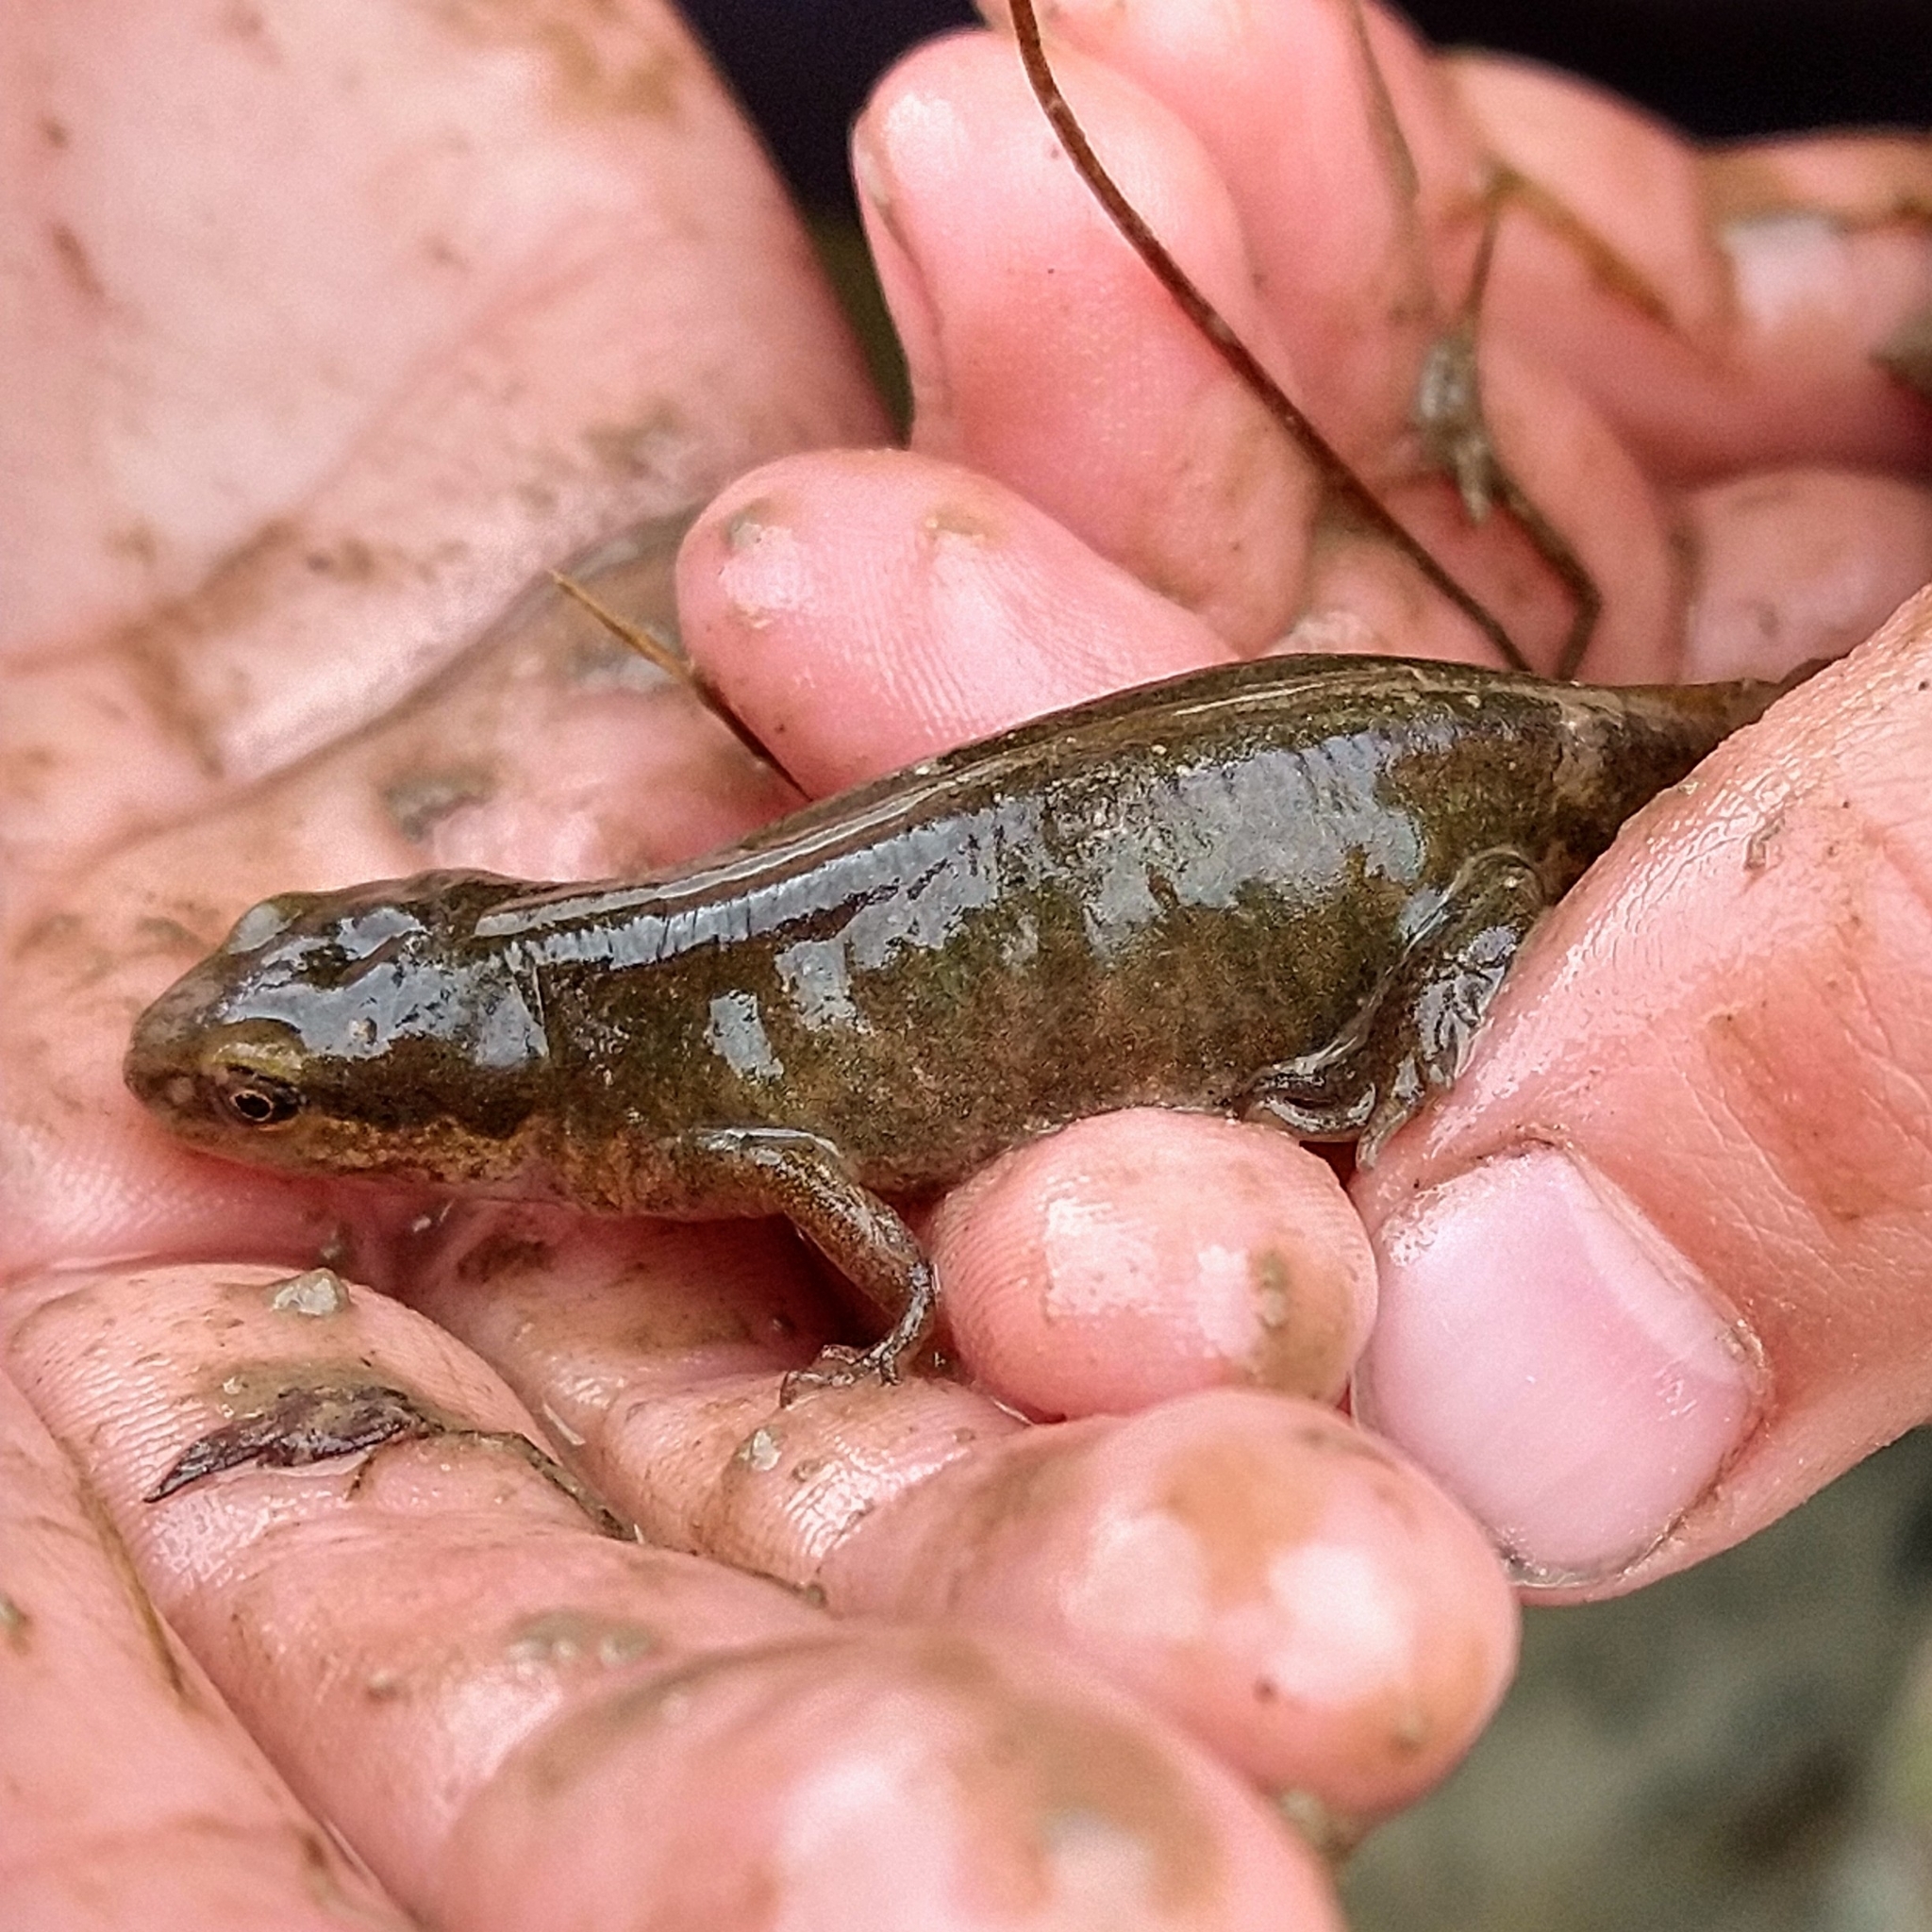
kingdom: Animalia
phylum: Chordata
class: Amphibia
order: Caudata
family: Salamandridae
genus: Lissotriton
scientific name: Lissotriton vulgaris
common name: Smooth newt
